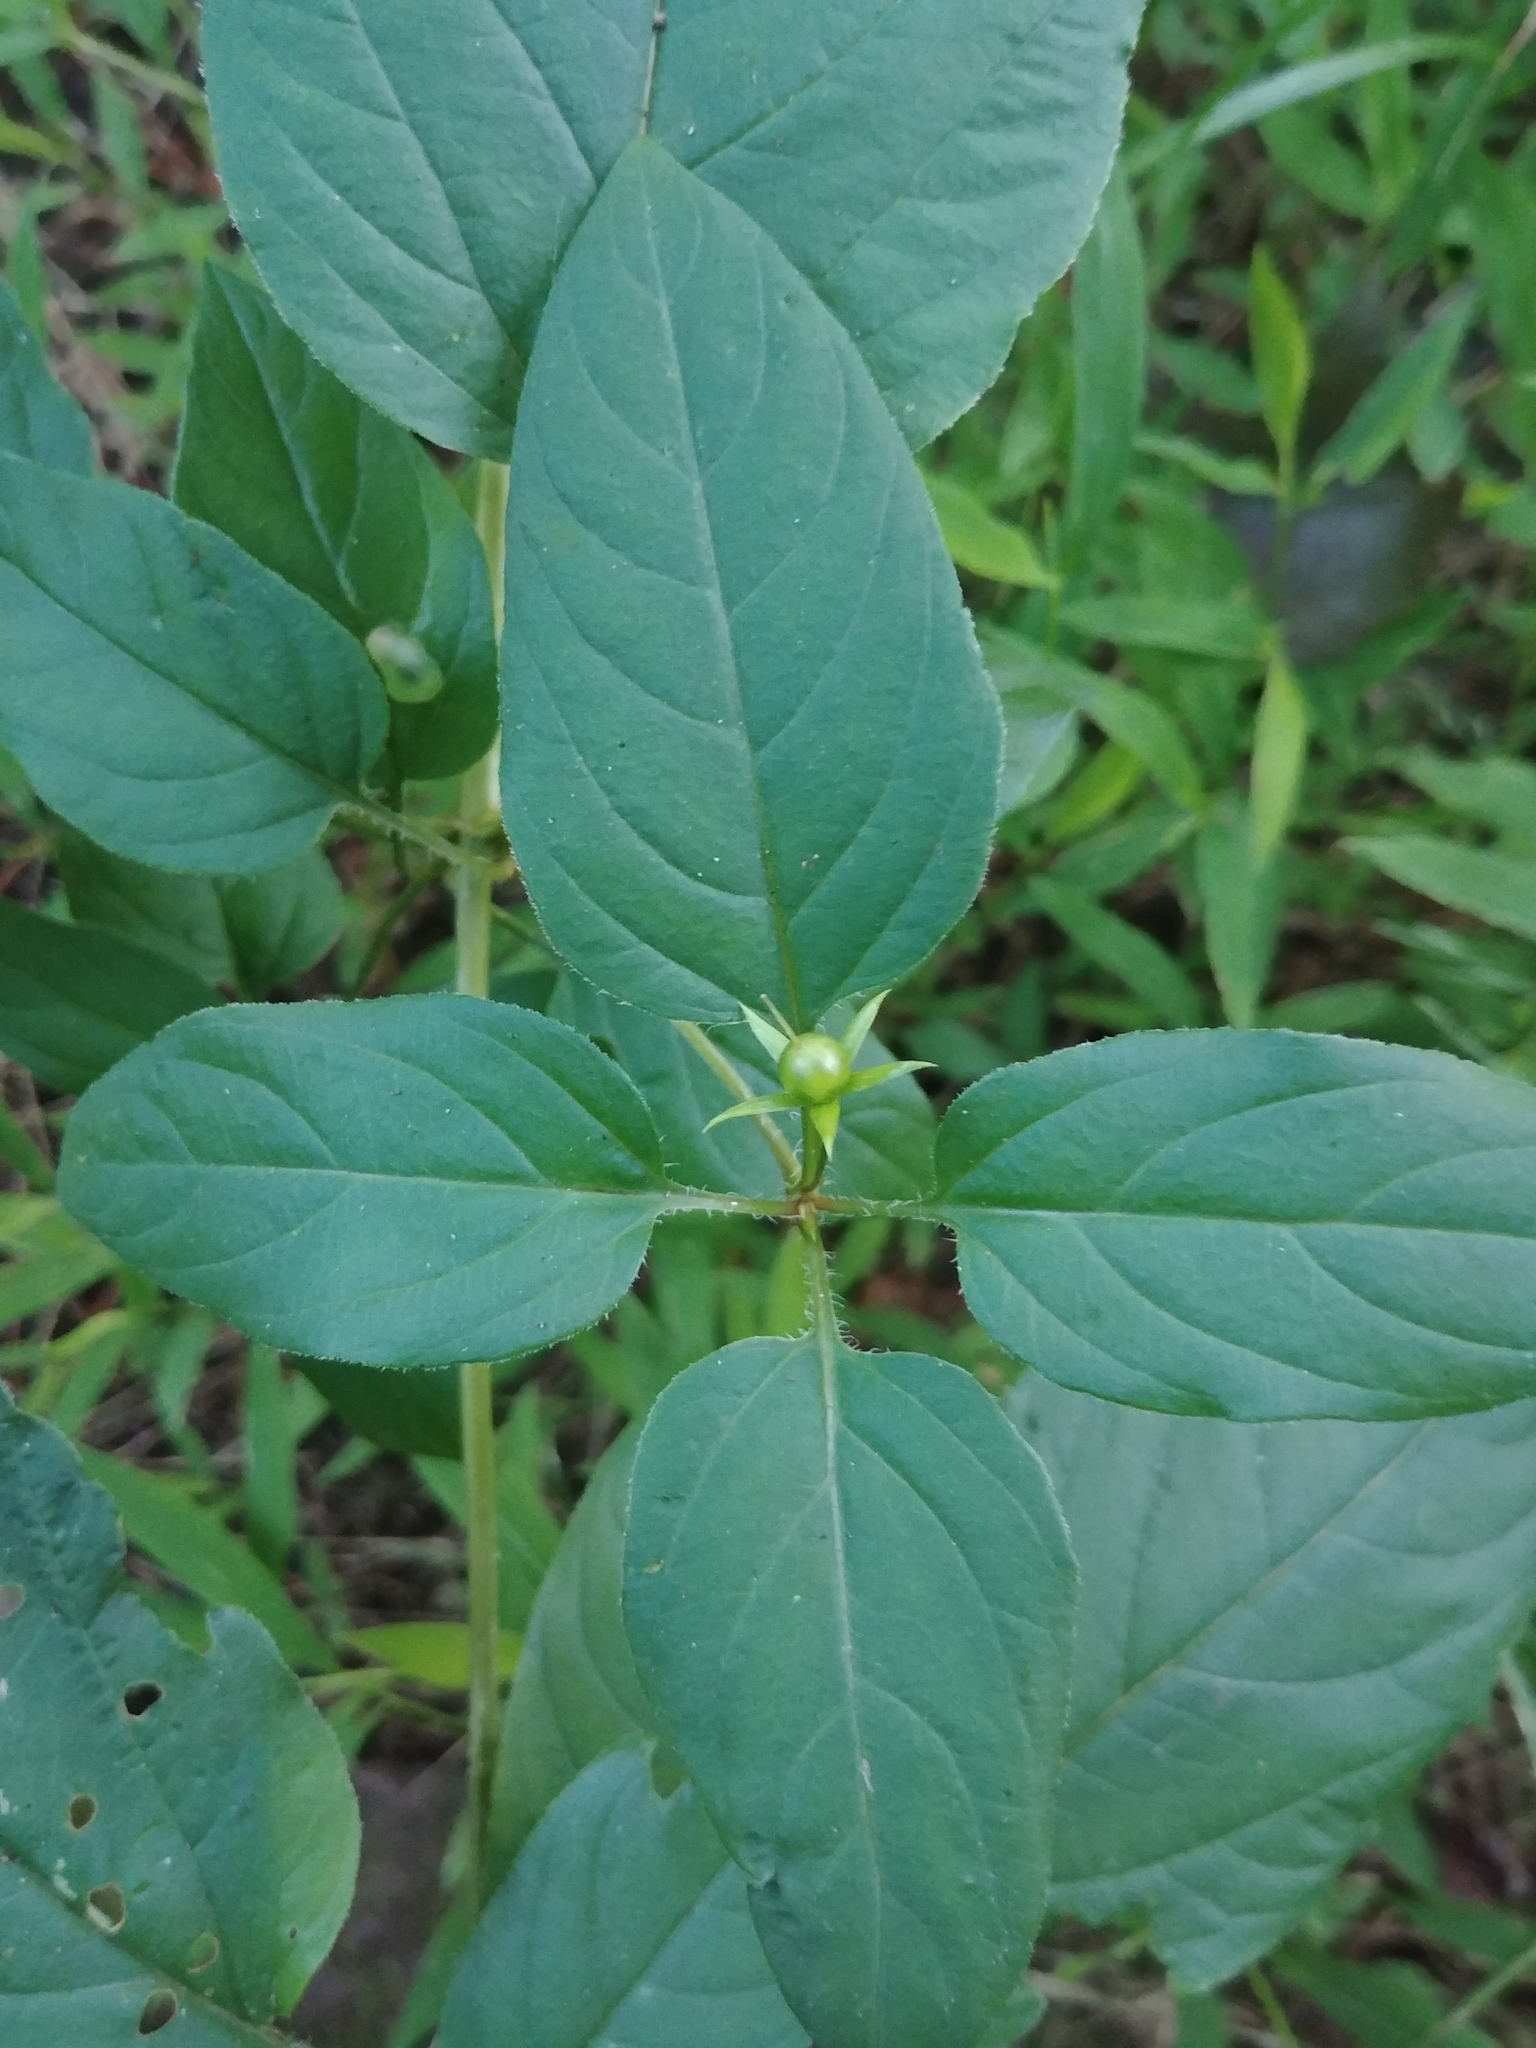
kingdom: Plantae
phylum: Tracheophyta
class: Magnoliopsida
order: Ericales
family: Primulaceae
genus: Lysimachia
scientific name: Lysimachia ciliata
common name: Fringed loosestrife
